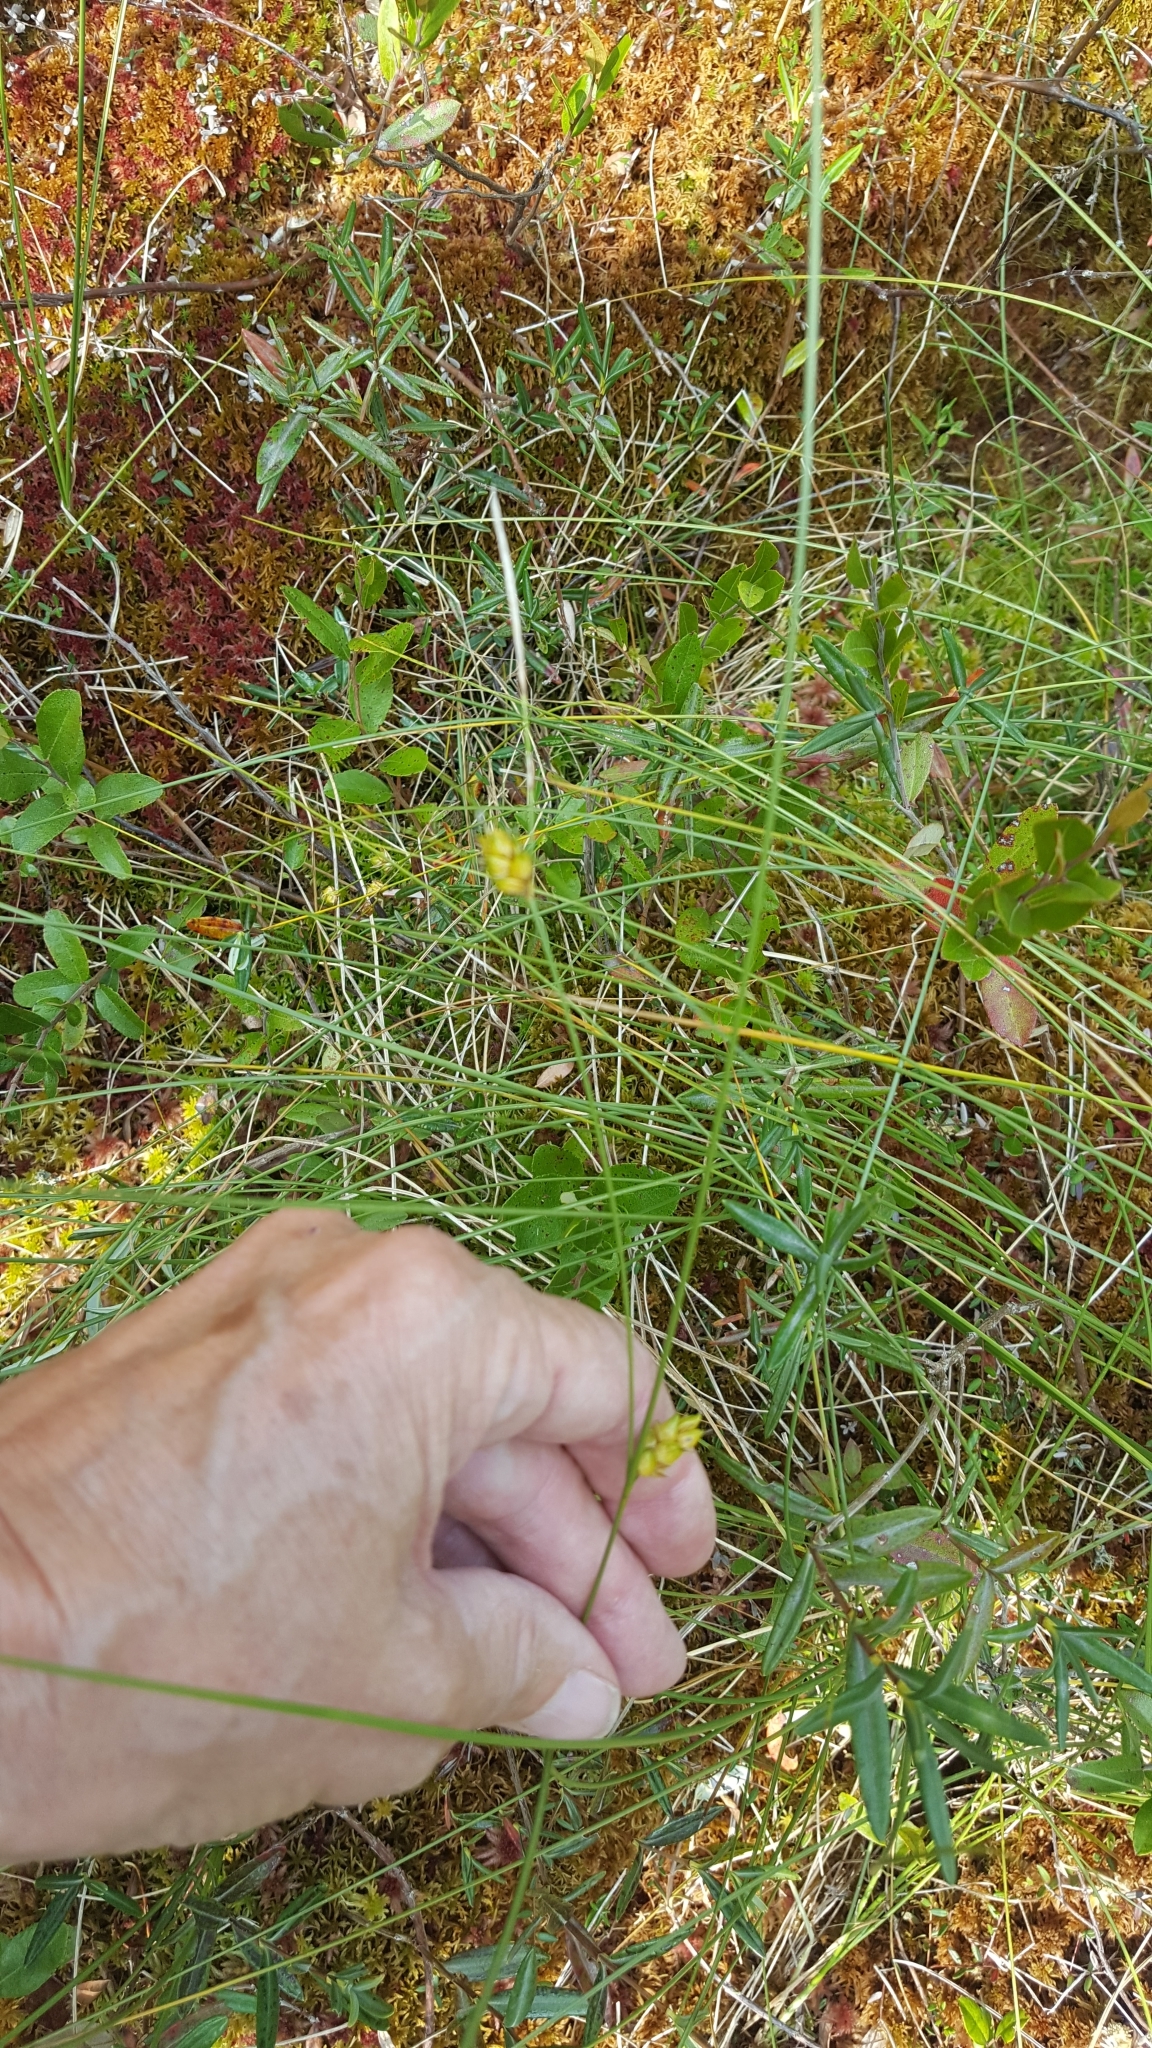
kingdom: Plantae
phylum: Tracheophyta
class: Liliopsida
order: Poales
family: Cyperaceae
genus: Carex
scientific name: Carex oligosperma
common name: Few-seed sedge
